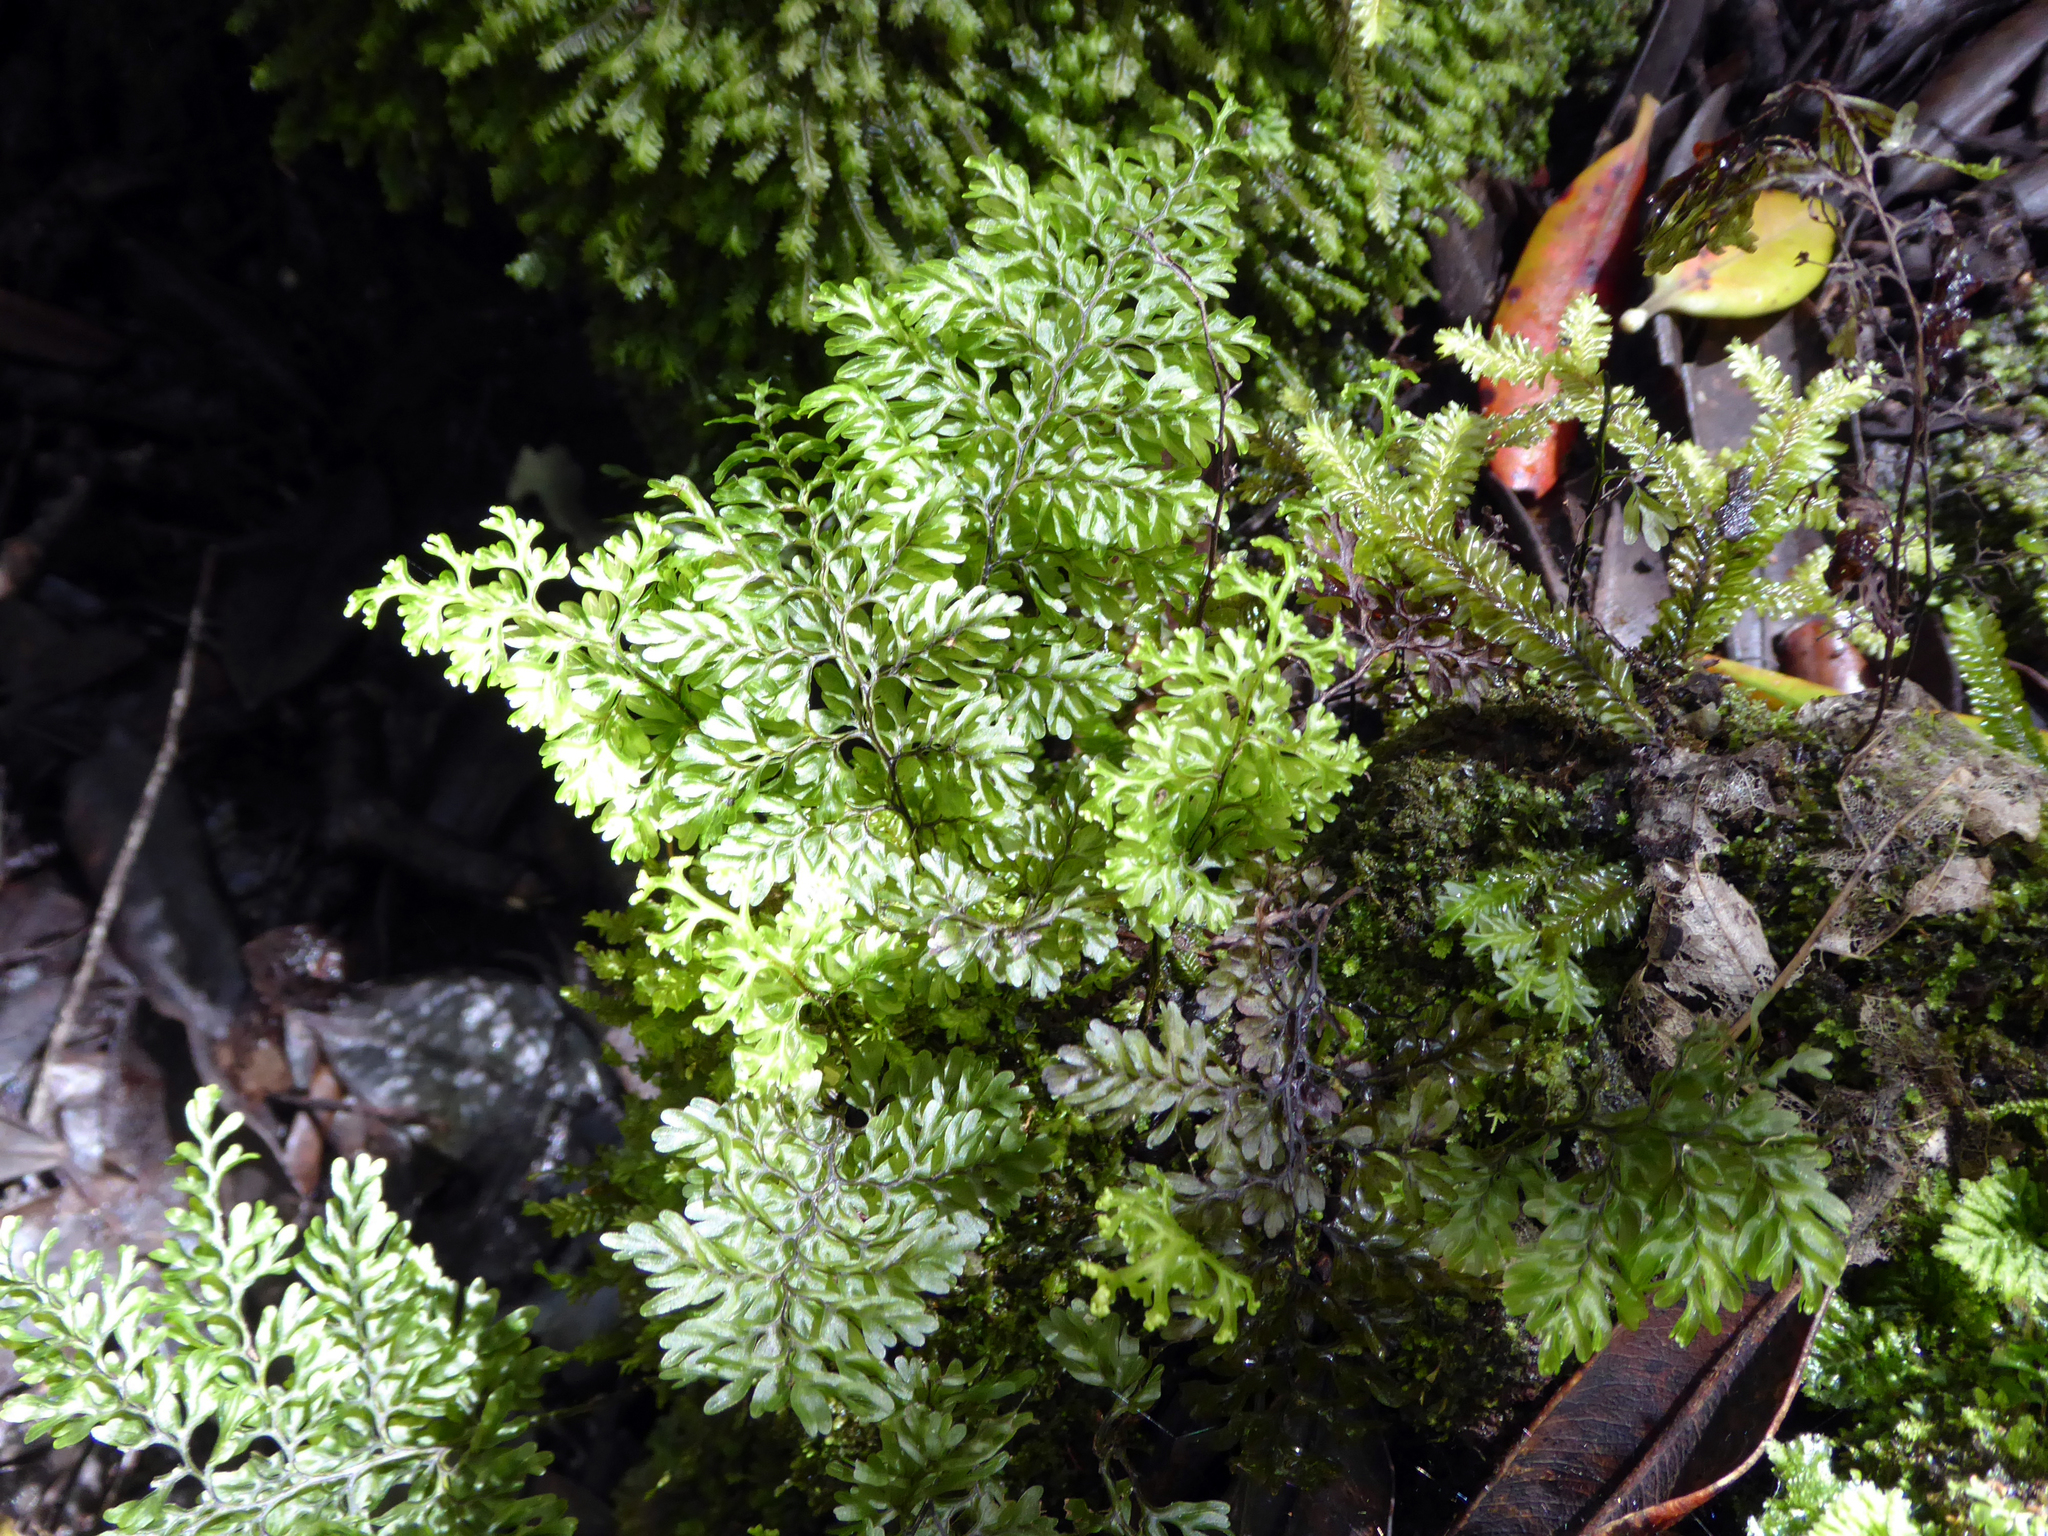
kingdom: Plantae
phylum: Tracheophyta
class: Polypodiopsida
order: Hymenophyllales
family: Hymenophyllaceae
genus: Hymenophyllum
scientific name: Hymenophyllum sanguinolentum
